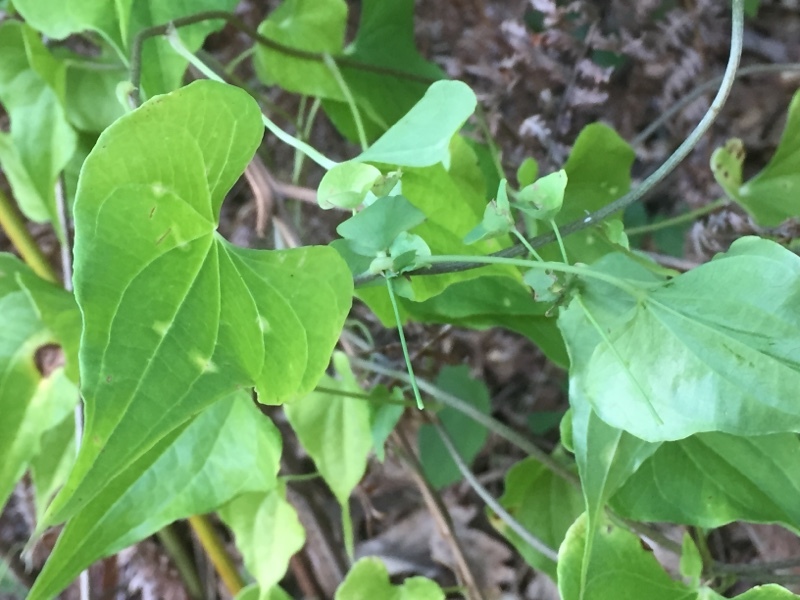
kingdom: Plantae
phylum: Tracheophyta
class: Liliopsida
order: Dioscoreales
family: Dioscoreaceae
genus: Dioscorea
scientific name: Dioscorea communis
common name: Black-bindweed
